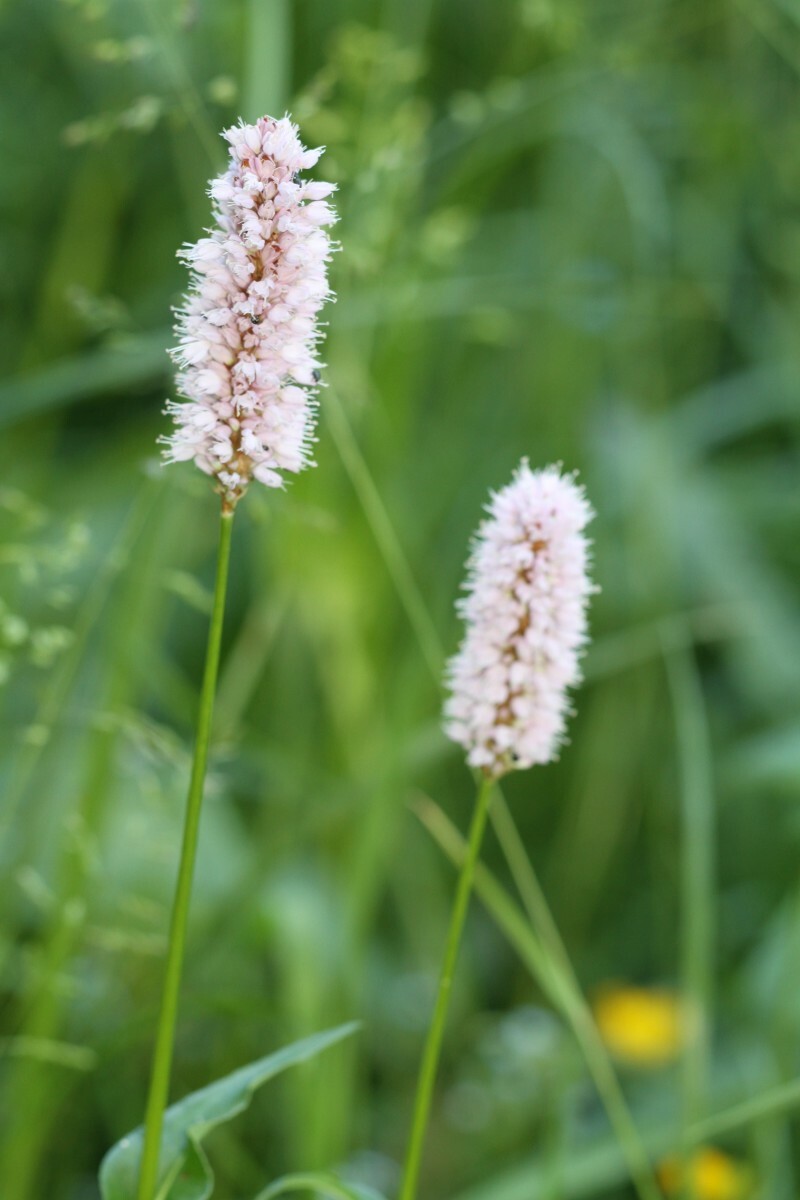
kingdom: Plantae
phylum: Tracheophyta
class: Magnoliopsida
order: Caryophyllales
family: Polygonaceae
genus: Bistorta
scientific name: Bistorta officinalis
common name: Common bistort
